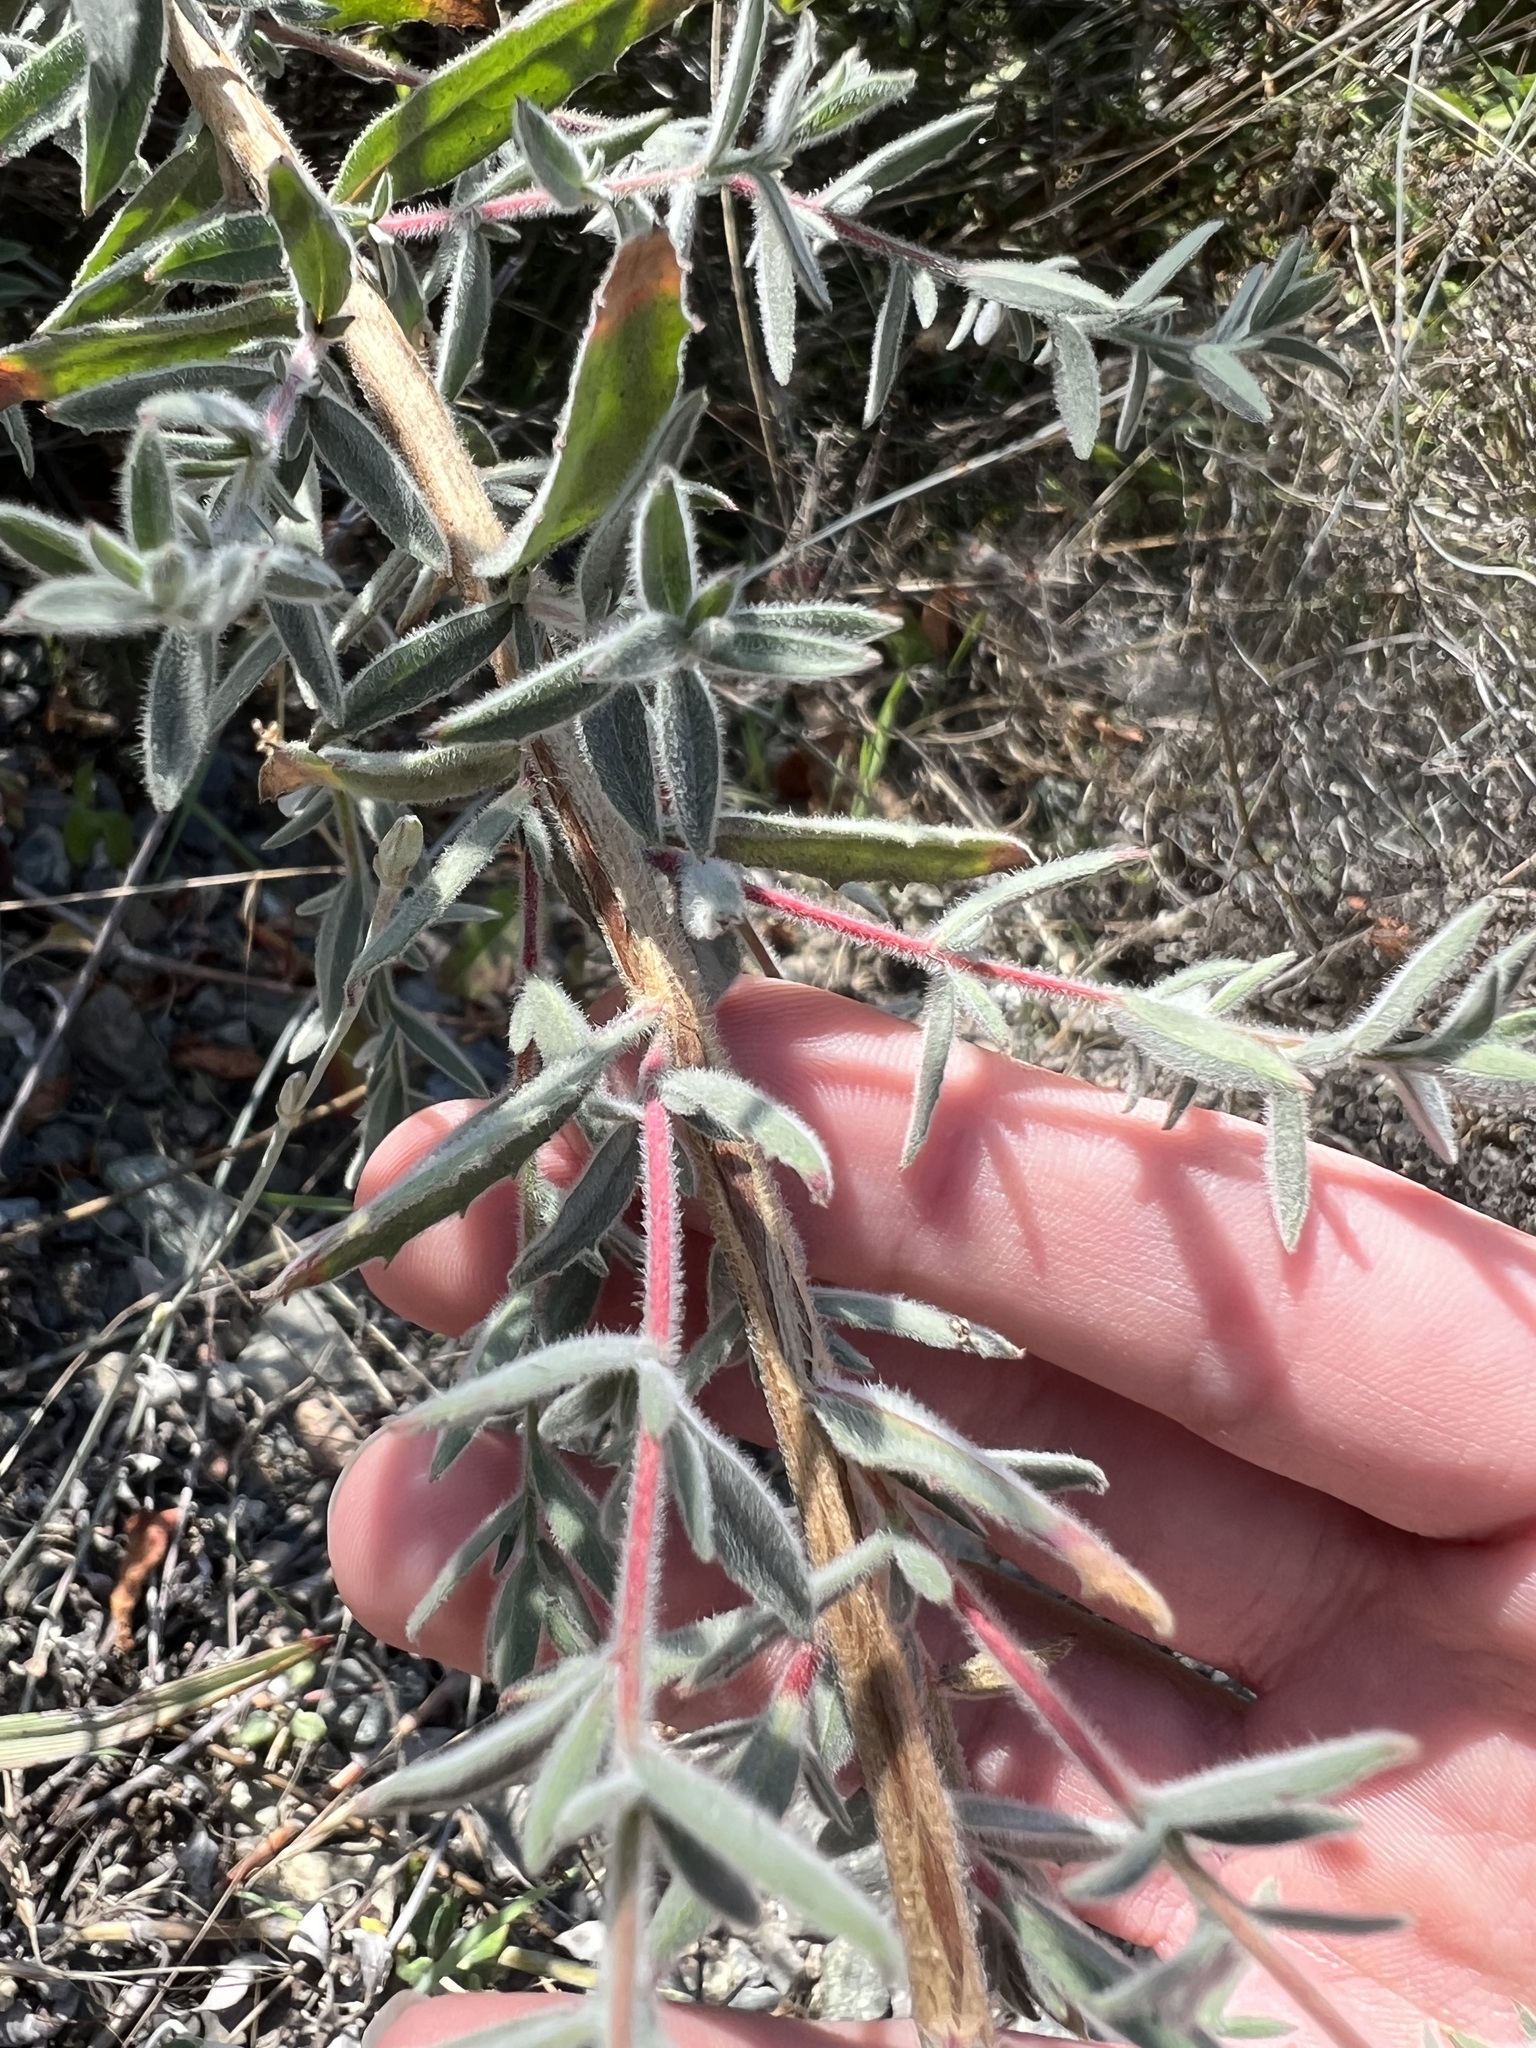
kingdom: Plantae
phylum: Tracheophyta
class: Magnoliopsida
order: Myrtales
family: Onagraceae
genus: Epilobium
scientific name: Epilobium canum
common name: California-fuchsia
